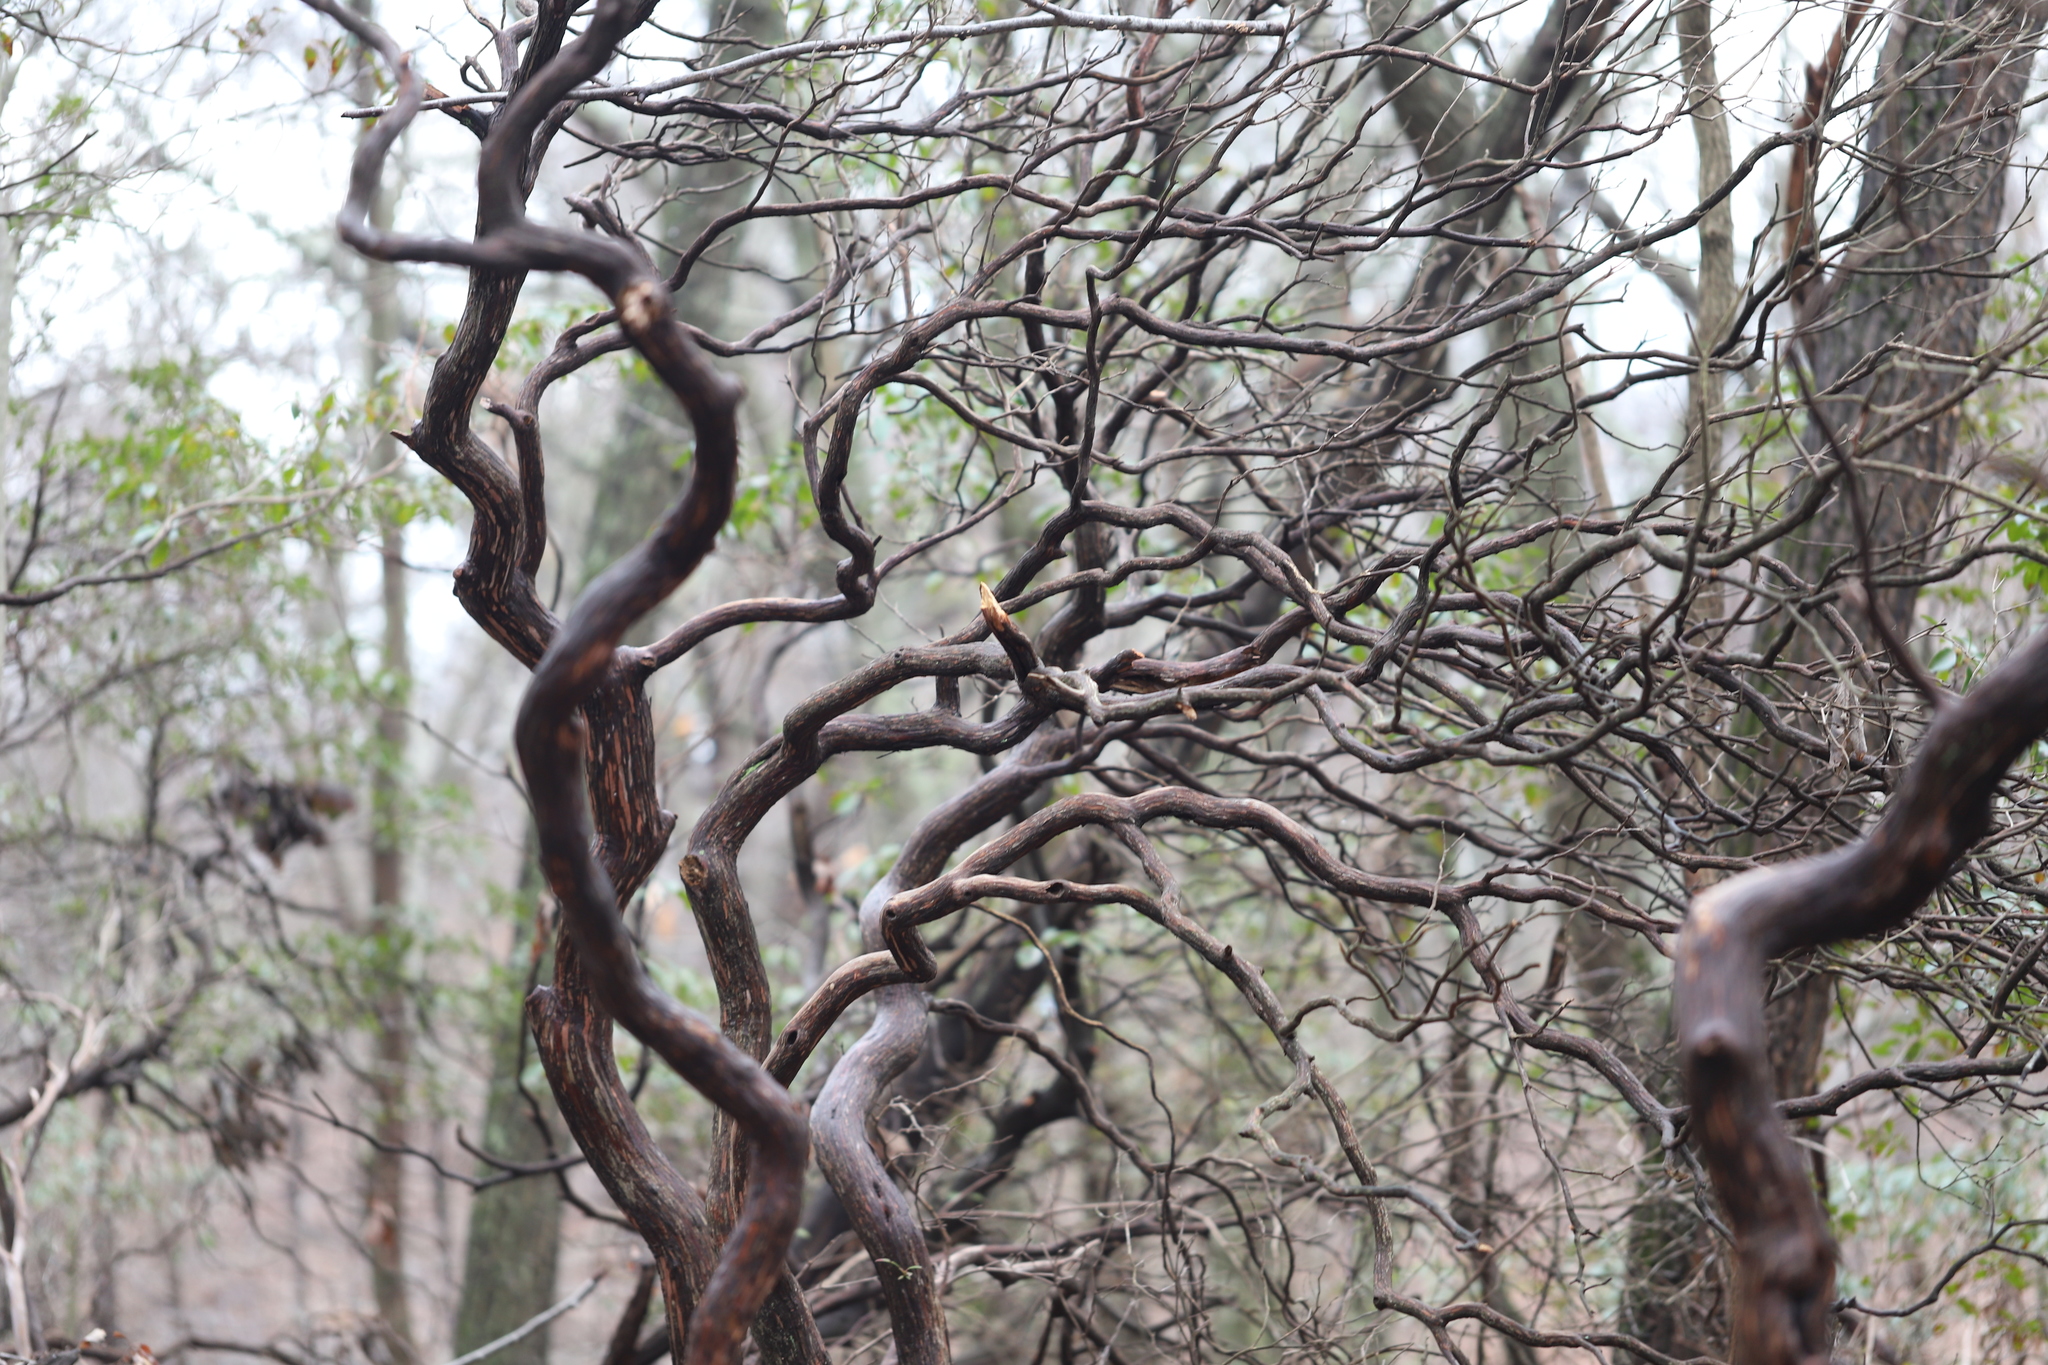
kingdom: Plantae
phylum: Tracheophyta
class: Magnoliopsida
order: Ericales
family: Ericaceae
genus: Kalmia
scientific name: Kalmia latifolia
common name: Mountain-laurel
